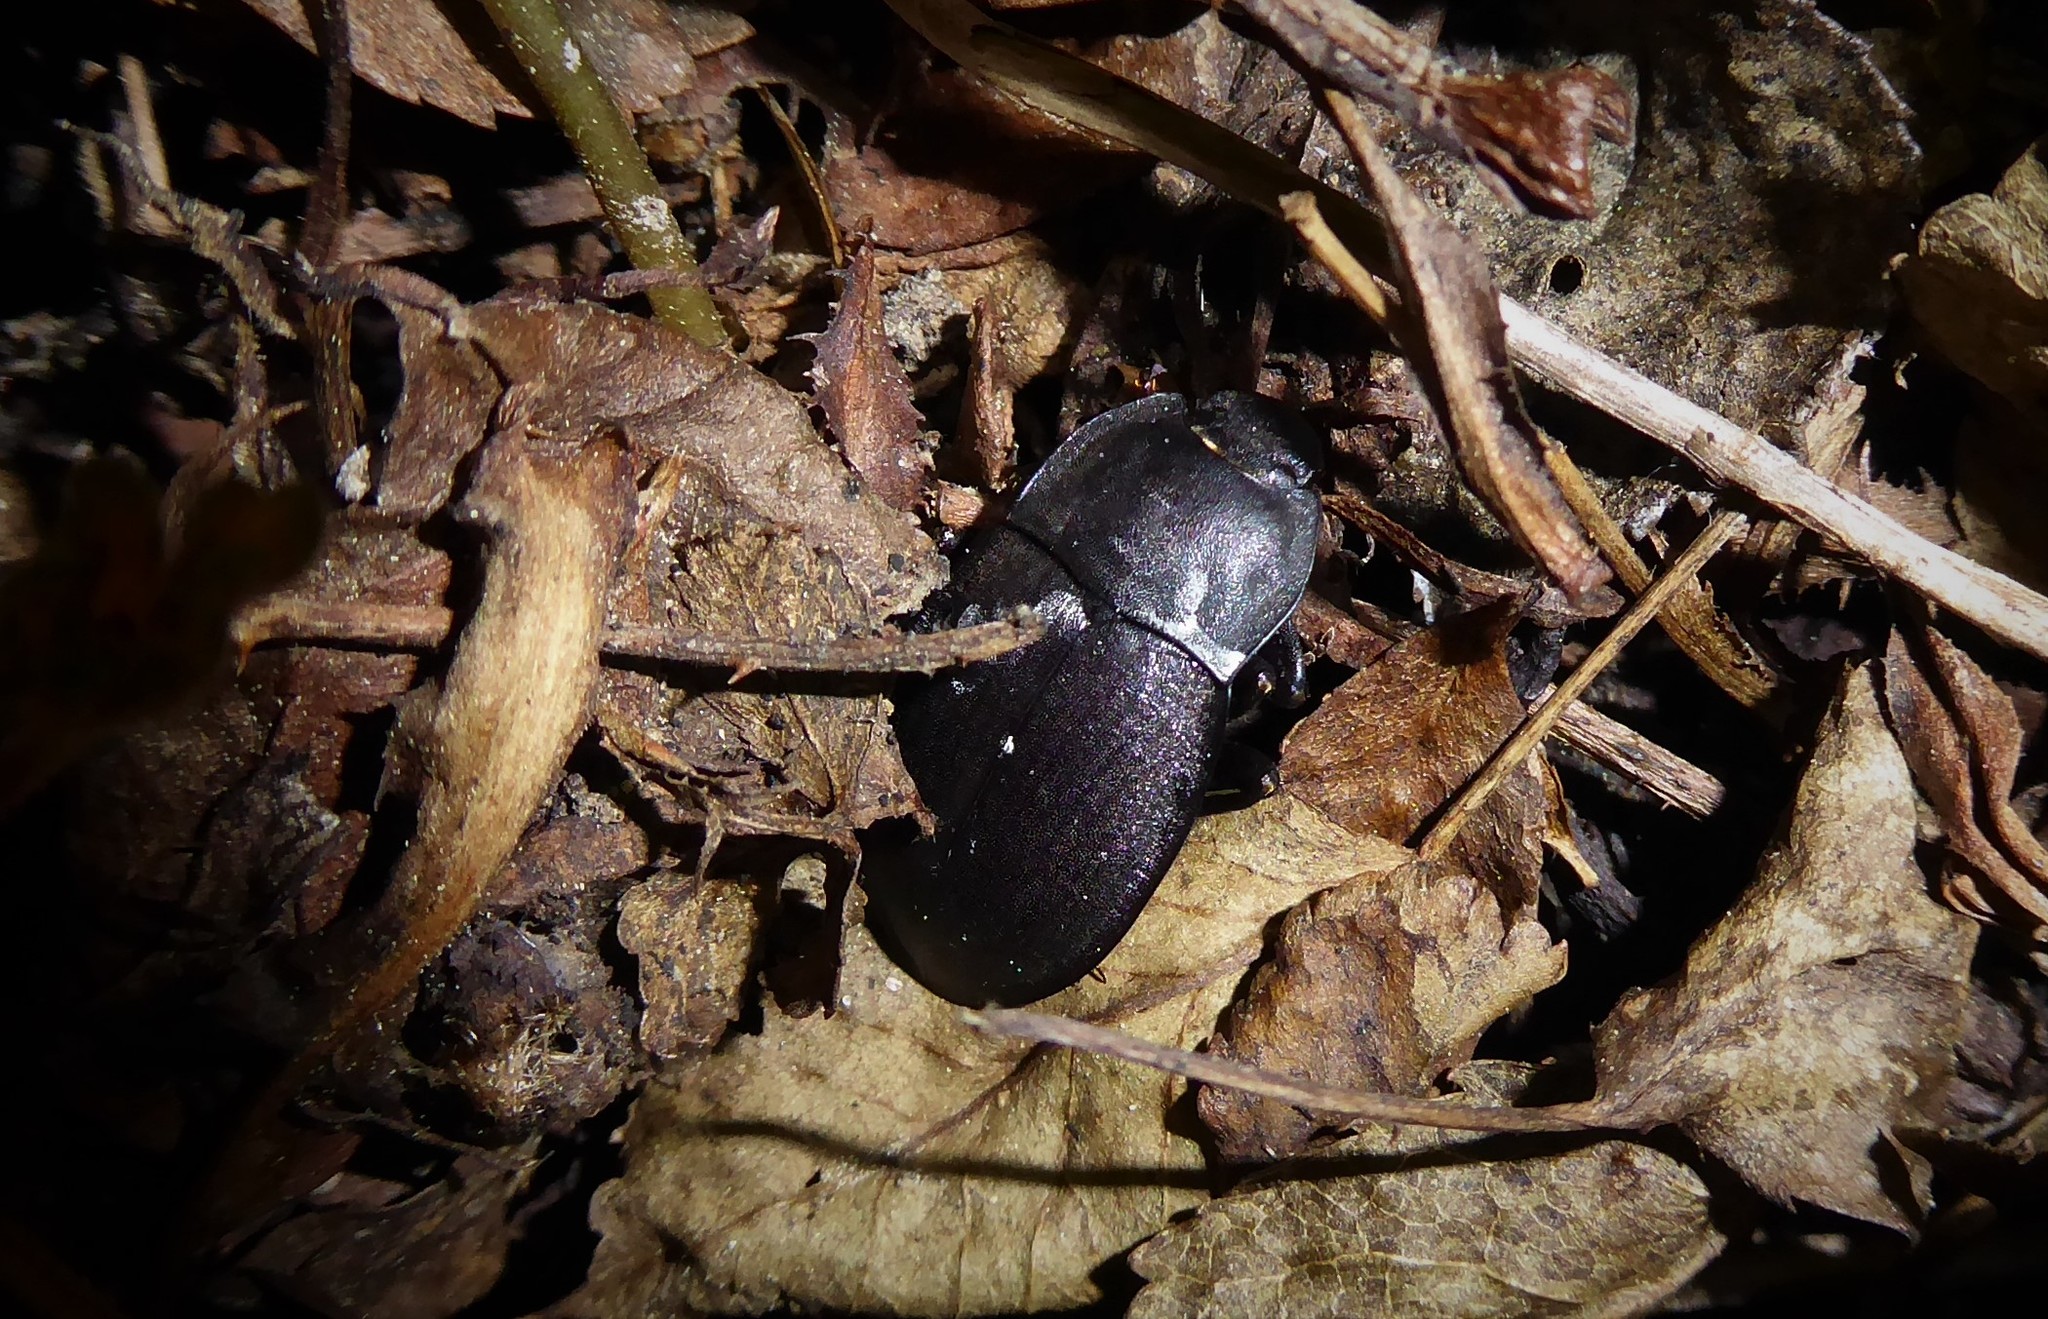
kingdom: Animalia
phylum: Arthropoda
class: Insecta
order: Coleoptera
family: Tenebrionidae
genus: Mimopeus
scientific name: Mimopeus
